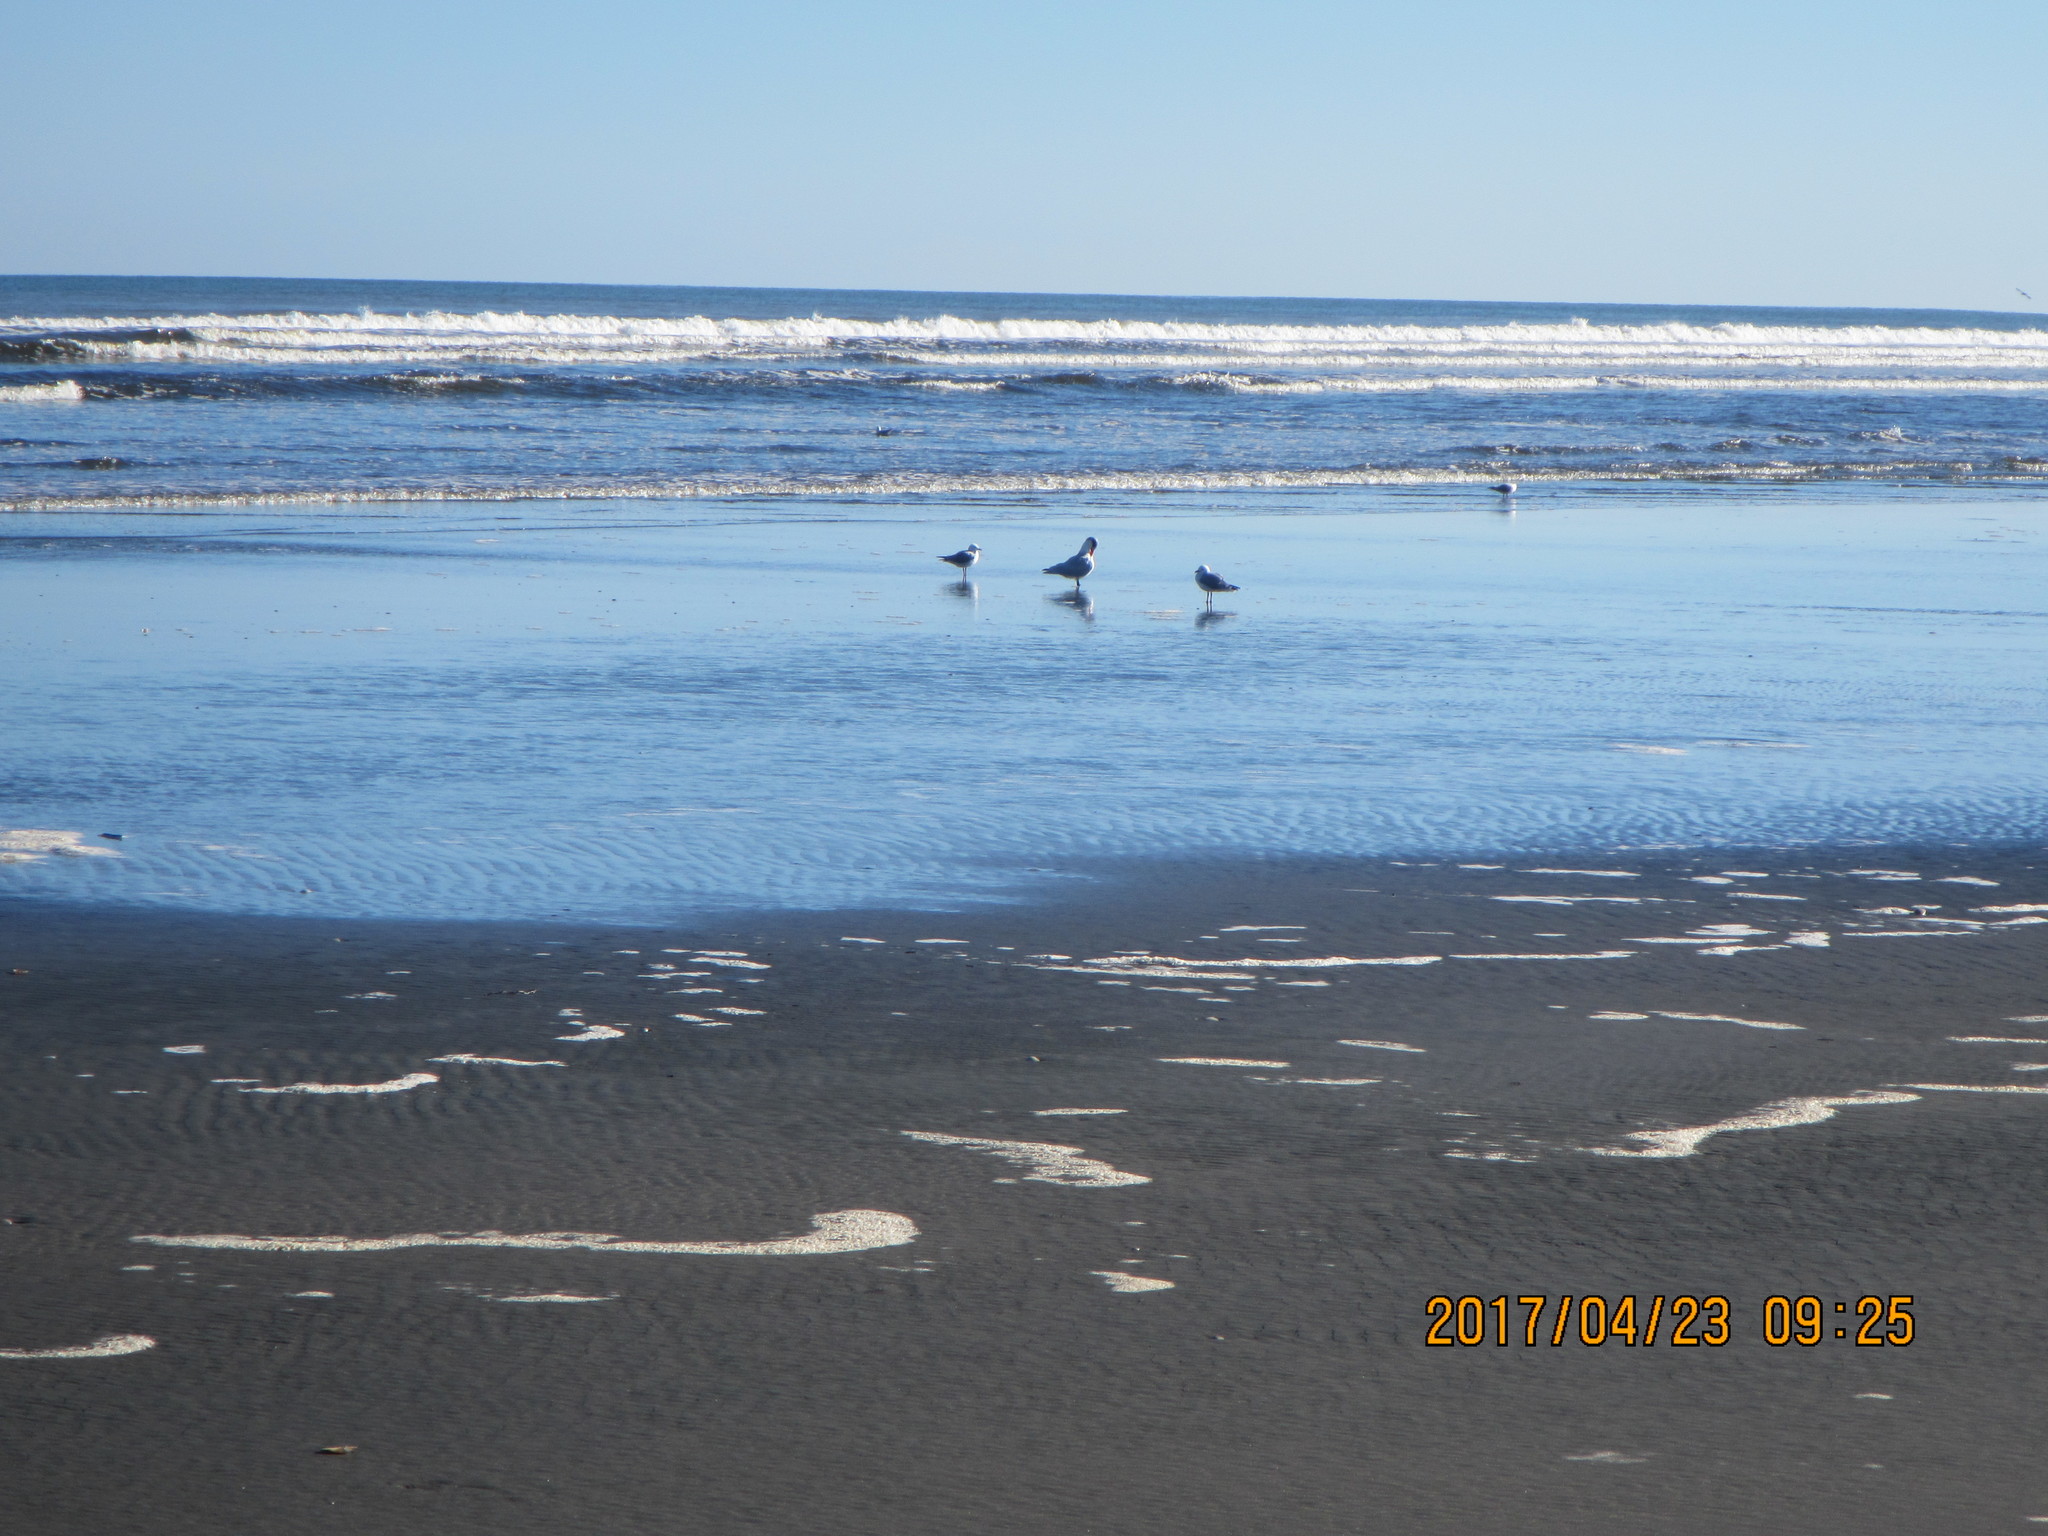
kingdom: Animalia
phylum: Chordata
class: Aves
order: Charadriiformes
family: Laridae
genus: Hydroprogne
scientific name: Hydroprogne caspia
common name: Caspian tern
